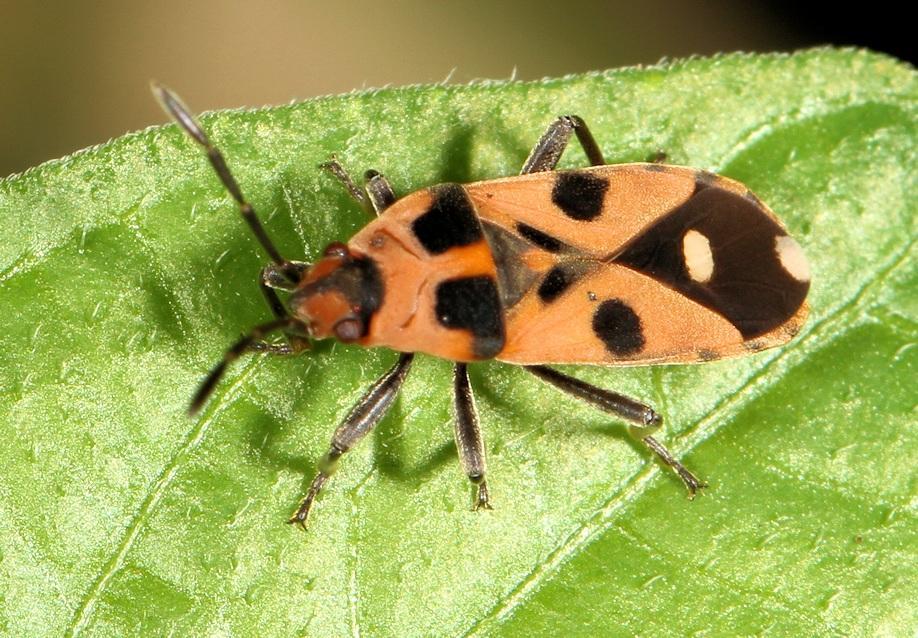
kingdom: Animalia
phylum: Arthropoda
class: Insecta
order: Hemiptera
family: Lygaeidae
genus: Horvathiolus
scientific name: Horvathiolus delicatulus
